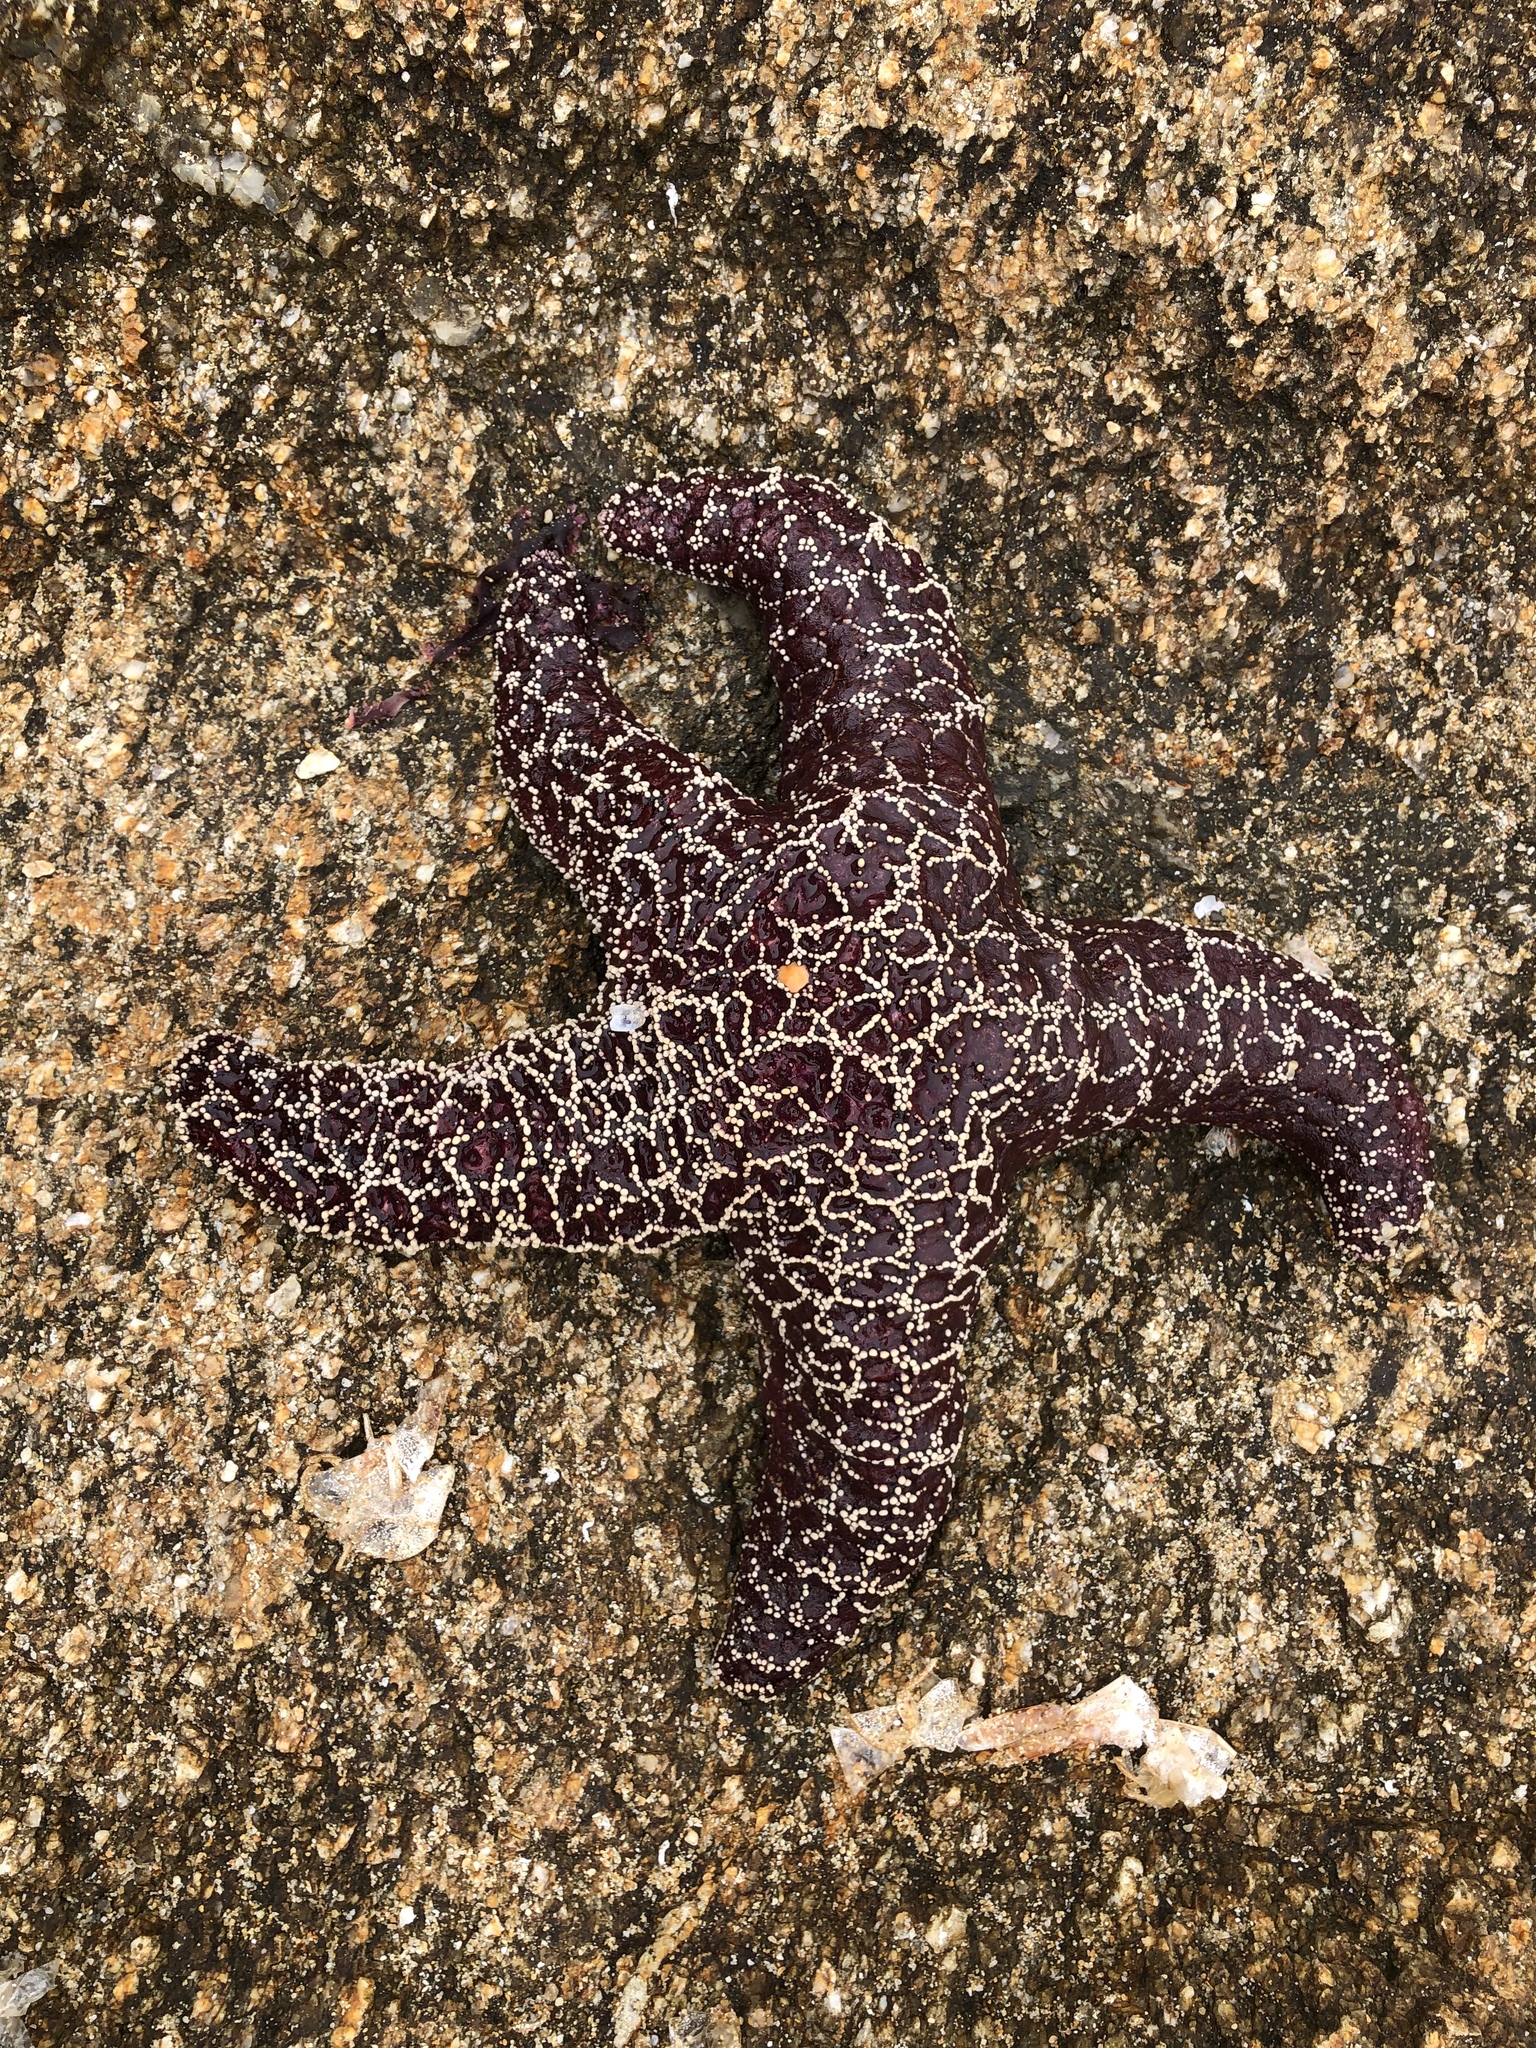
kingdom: Animalia
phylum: Echinodermata
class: Asteroidea
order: Forcipulatida
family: Asteriidae
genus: Pisaster
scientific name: Pisaster ochraceus
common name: Ochre stars
